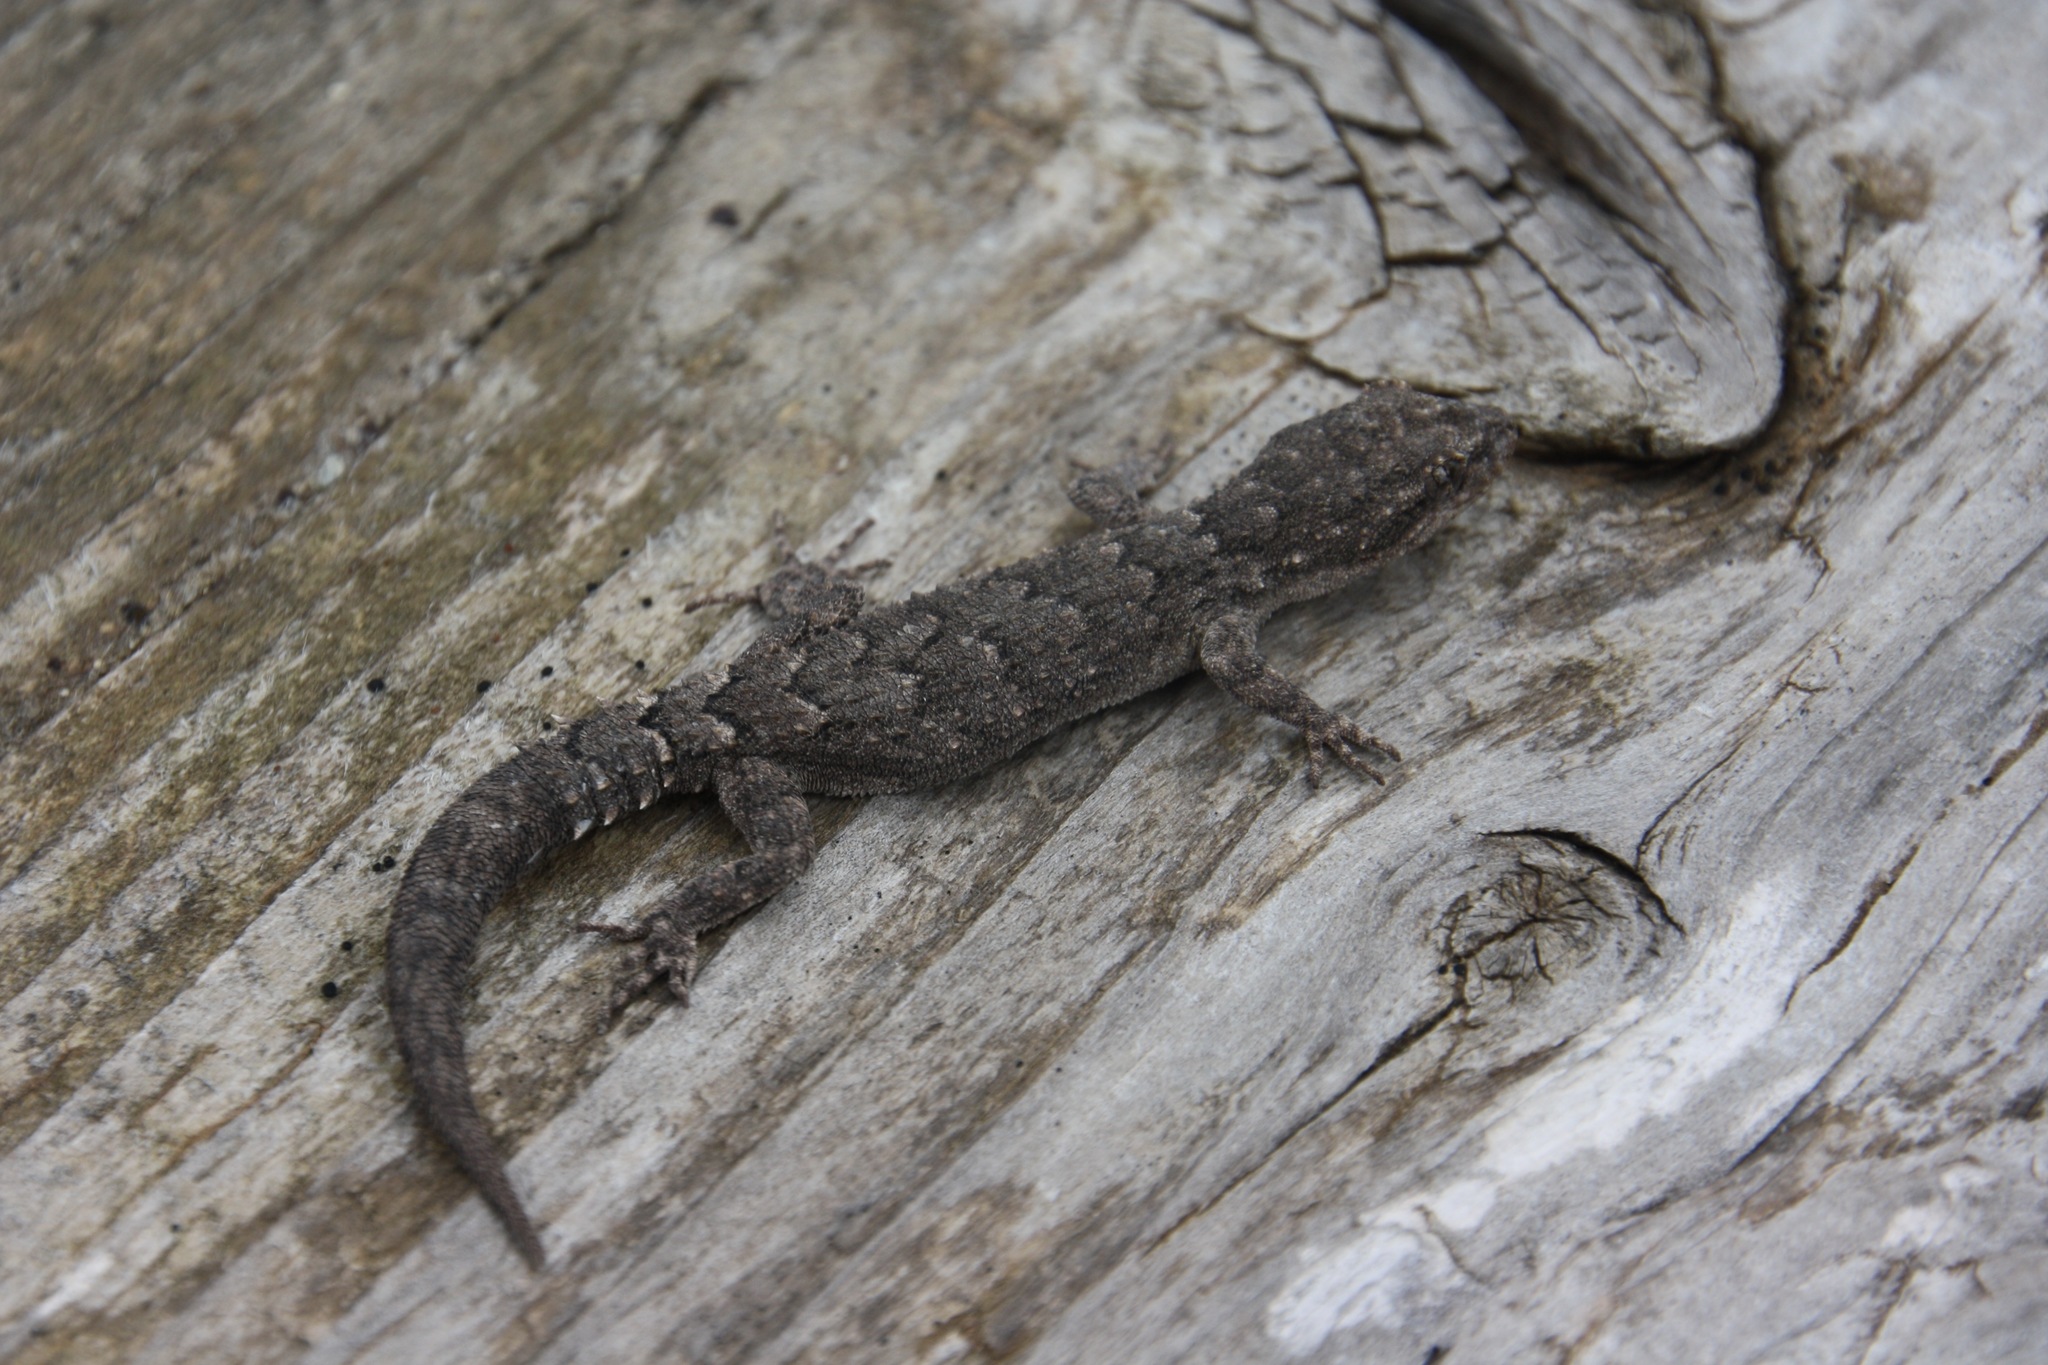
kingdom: Animalia
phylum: Chordata
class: Squamata
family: Gekkonidae
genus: Mediodactylus
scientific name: Mediodactylus orientalis
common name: Mediterranean thin-toed gecko
